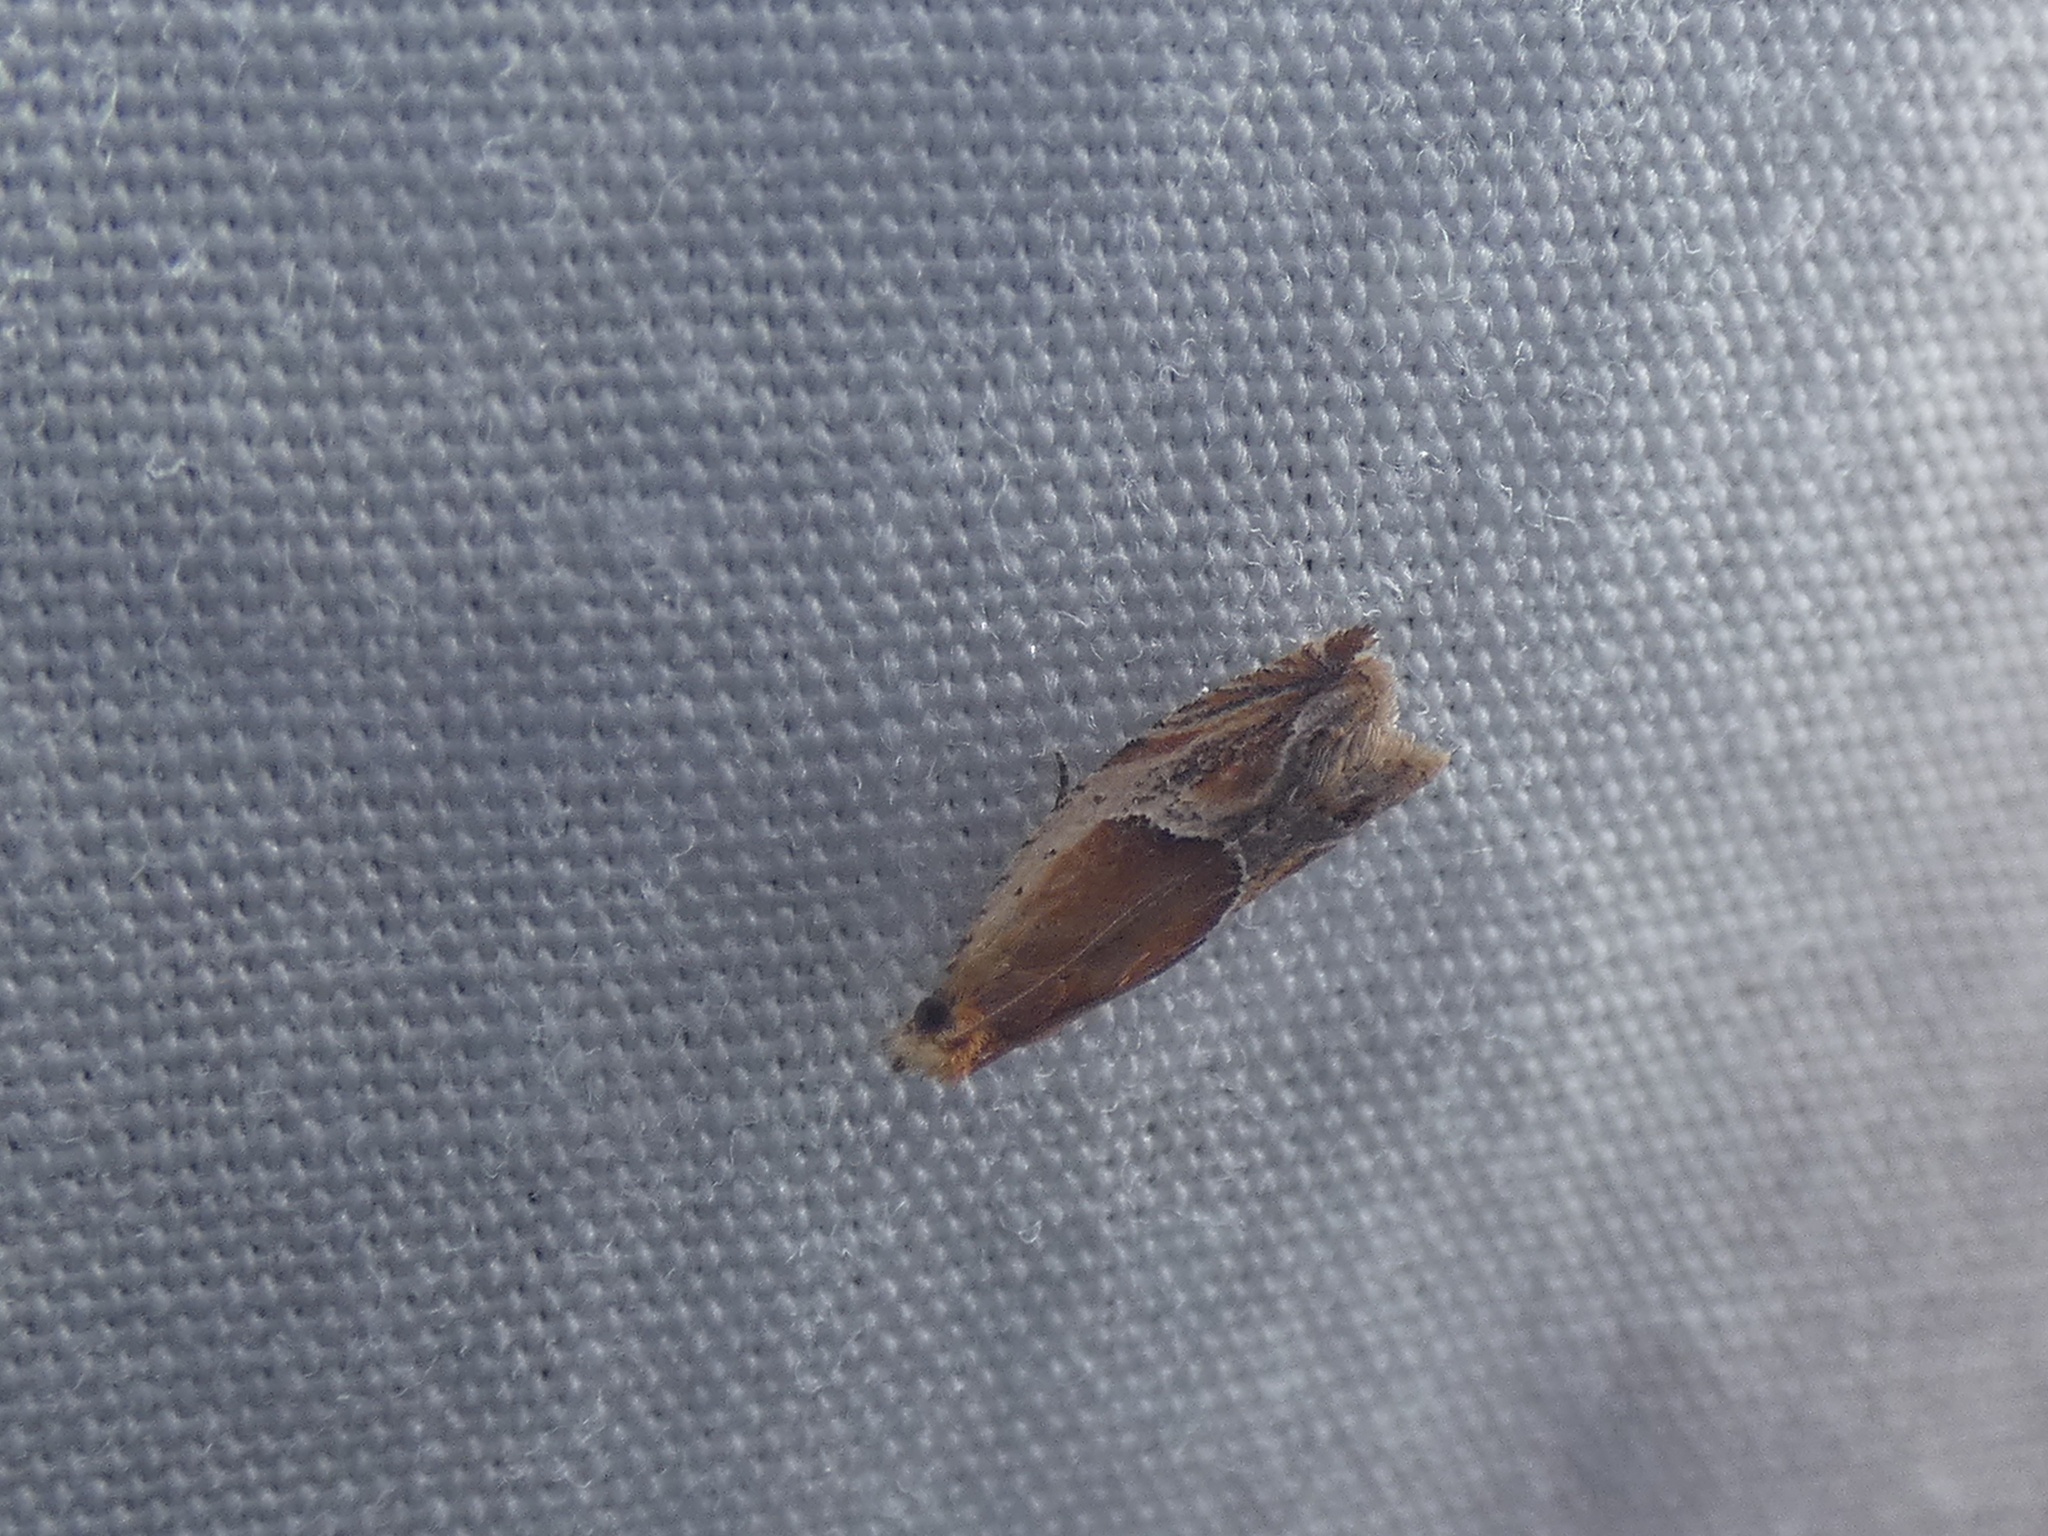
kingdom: Animalia
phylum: Arthropoda
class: Insecta
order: Lepidoptera
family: Tortricidae
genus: Ancylis
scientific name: Ancylis comptana
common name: Little roller
